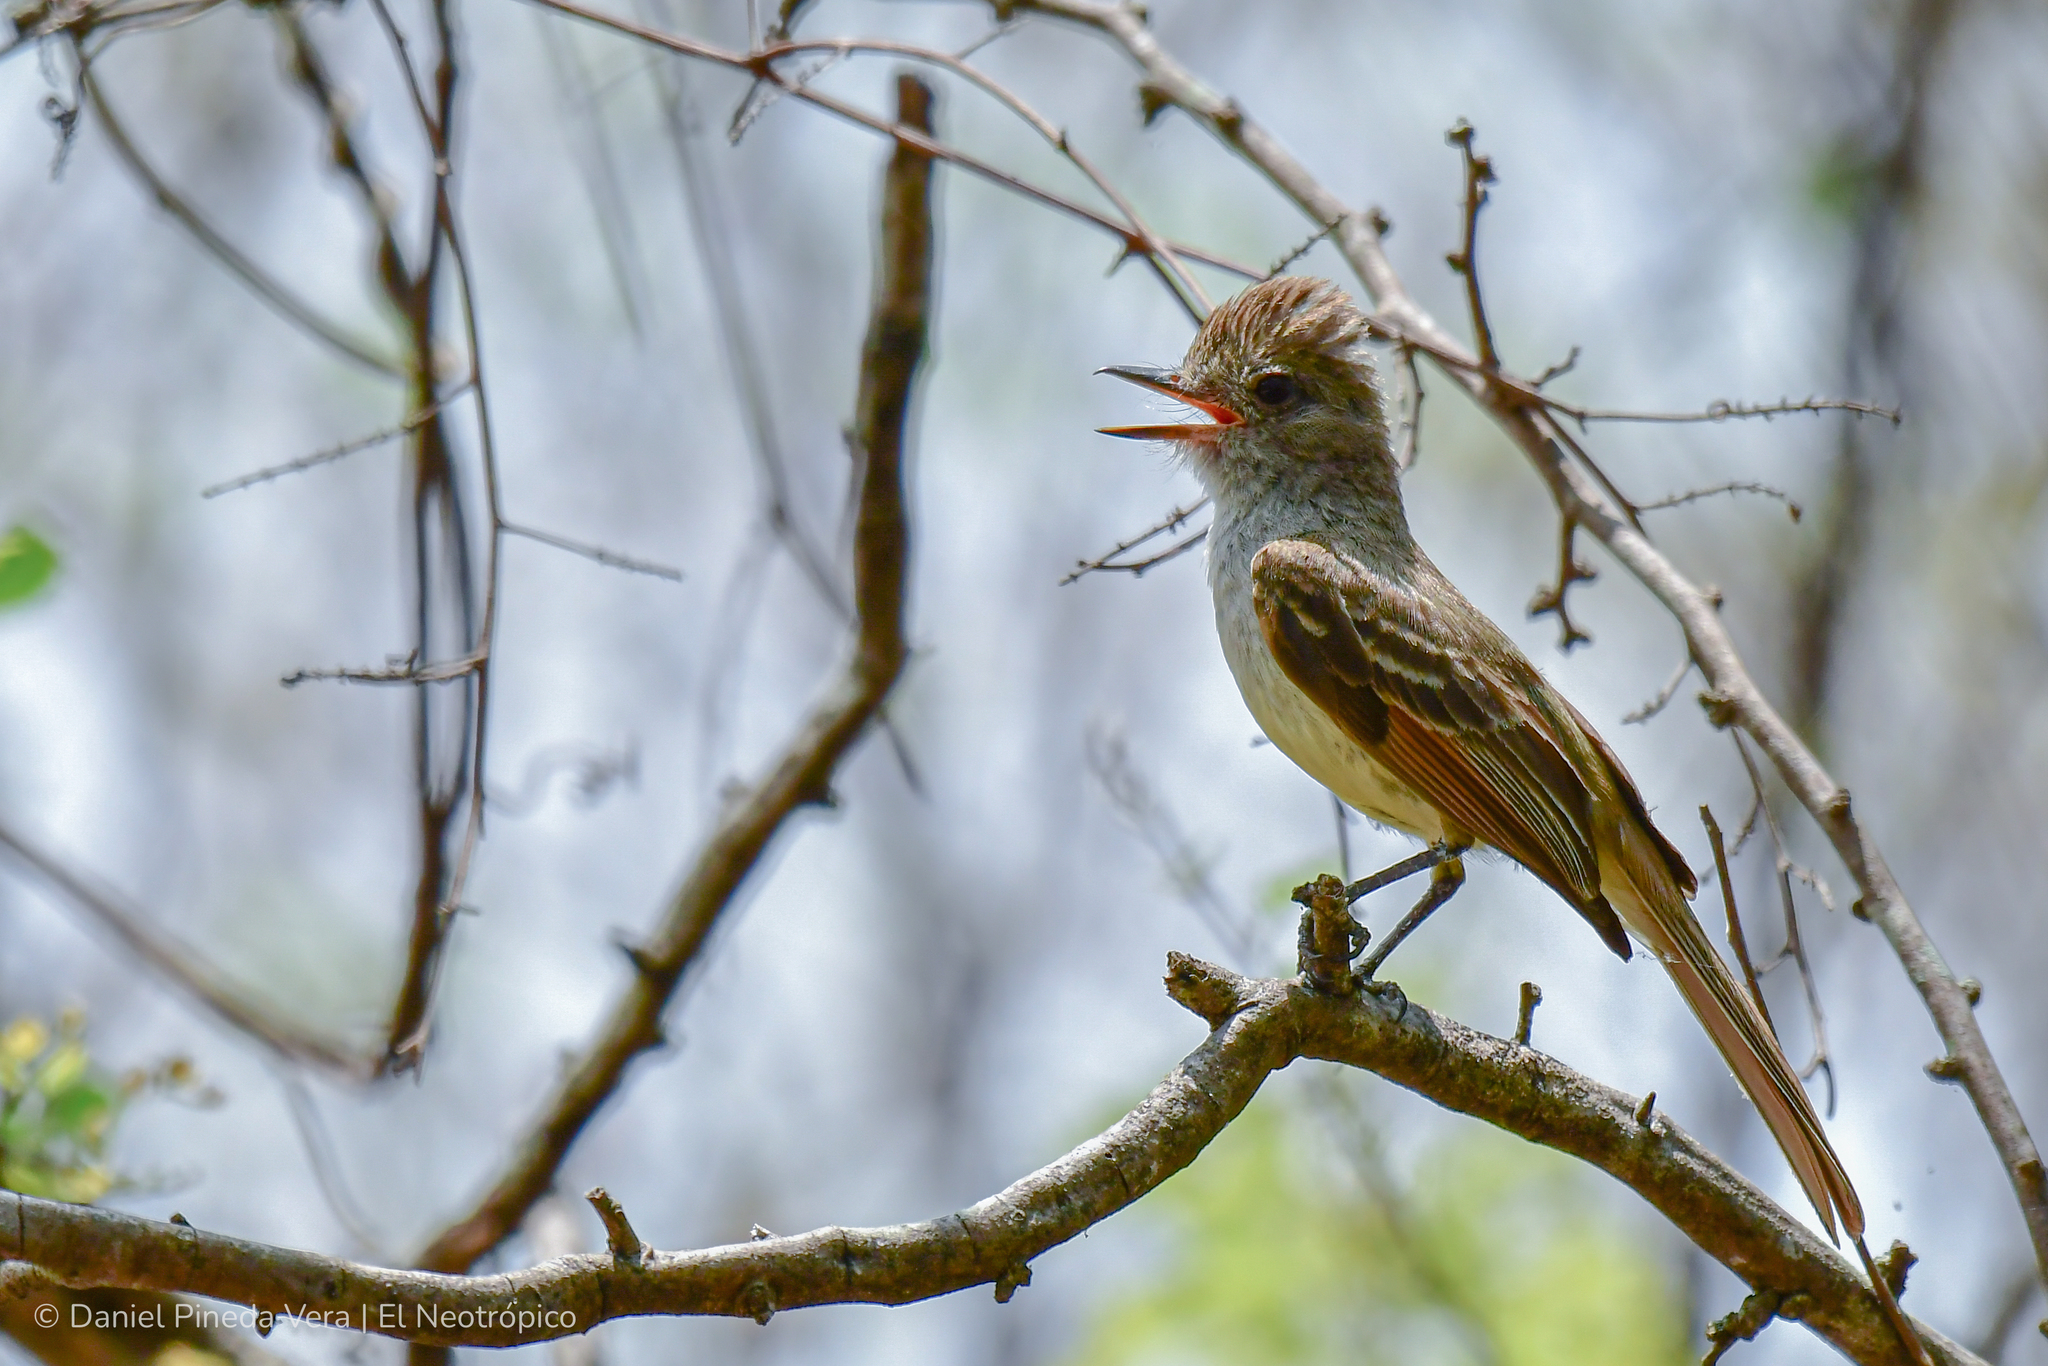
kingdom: Animalia
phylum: Chordata
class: Aves
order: Passeriformes
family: Tyrannidae
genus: Myiarchus
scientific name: Myiarchus tyrannulus
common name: Brown-crested flycatcher
